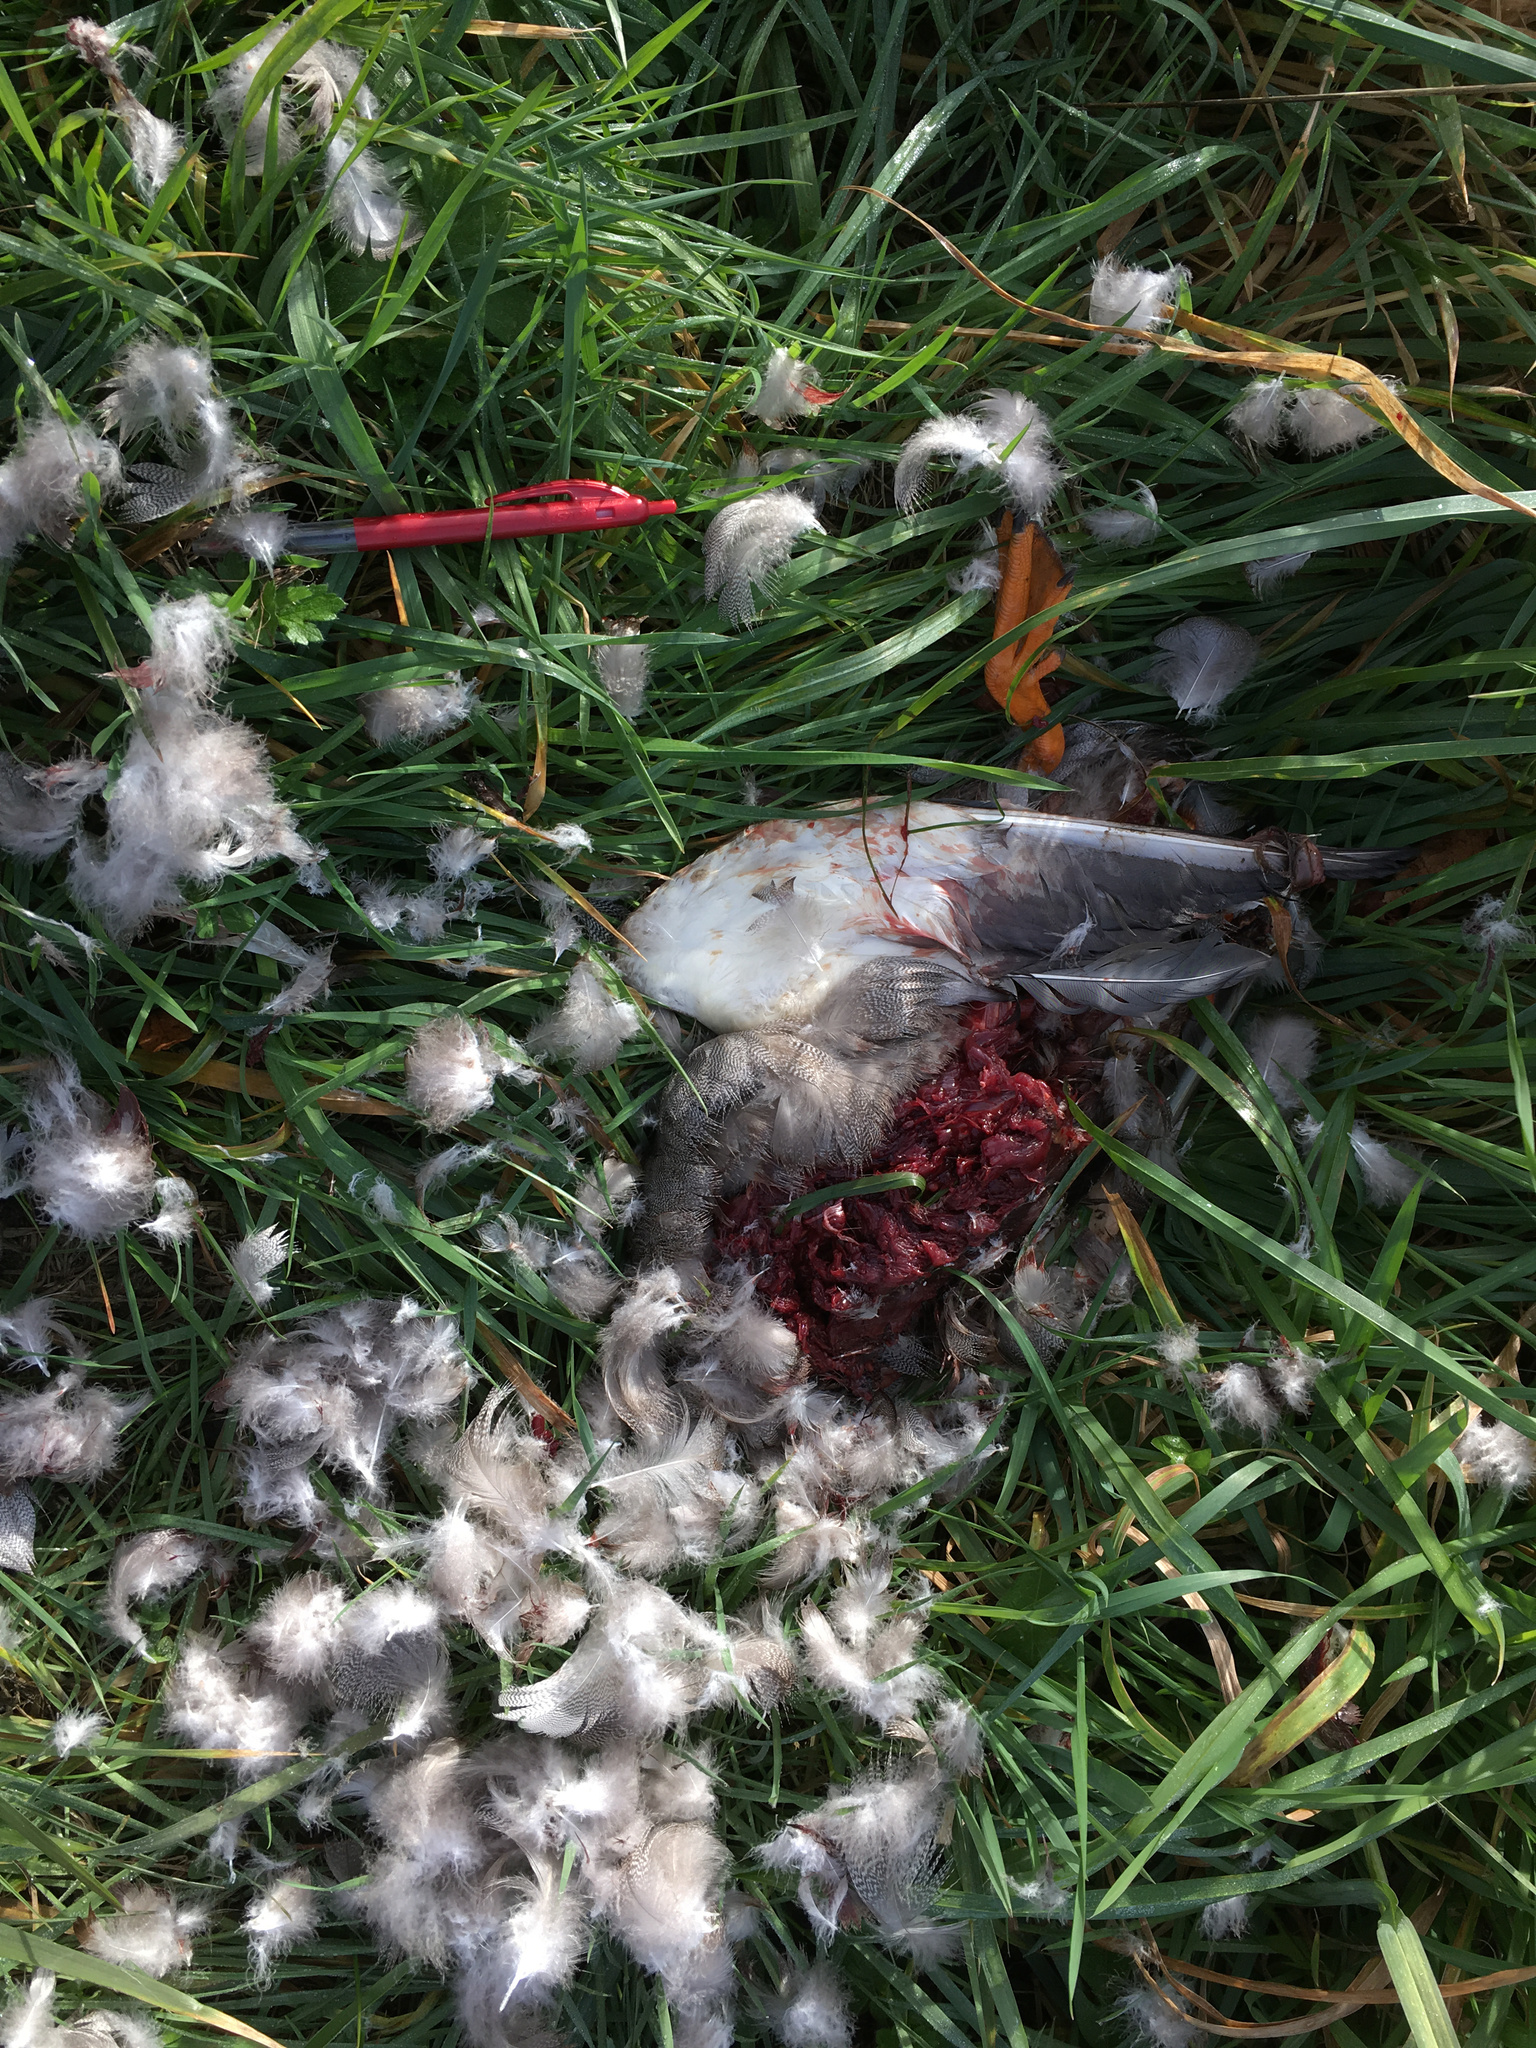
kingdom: Animalia
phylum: Chordata
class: Aves
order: Anseriformes
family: Anatidae
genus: Anas
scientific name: Anas platyrhynchos
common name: Mallard
